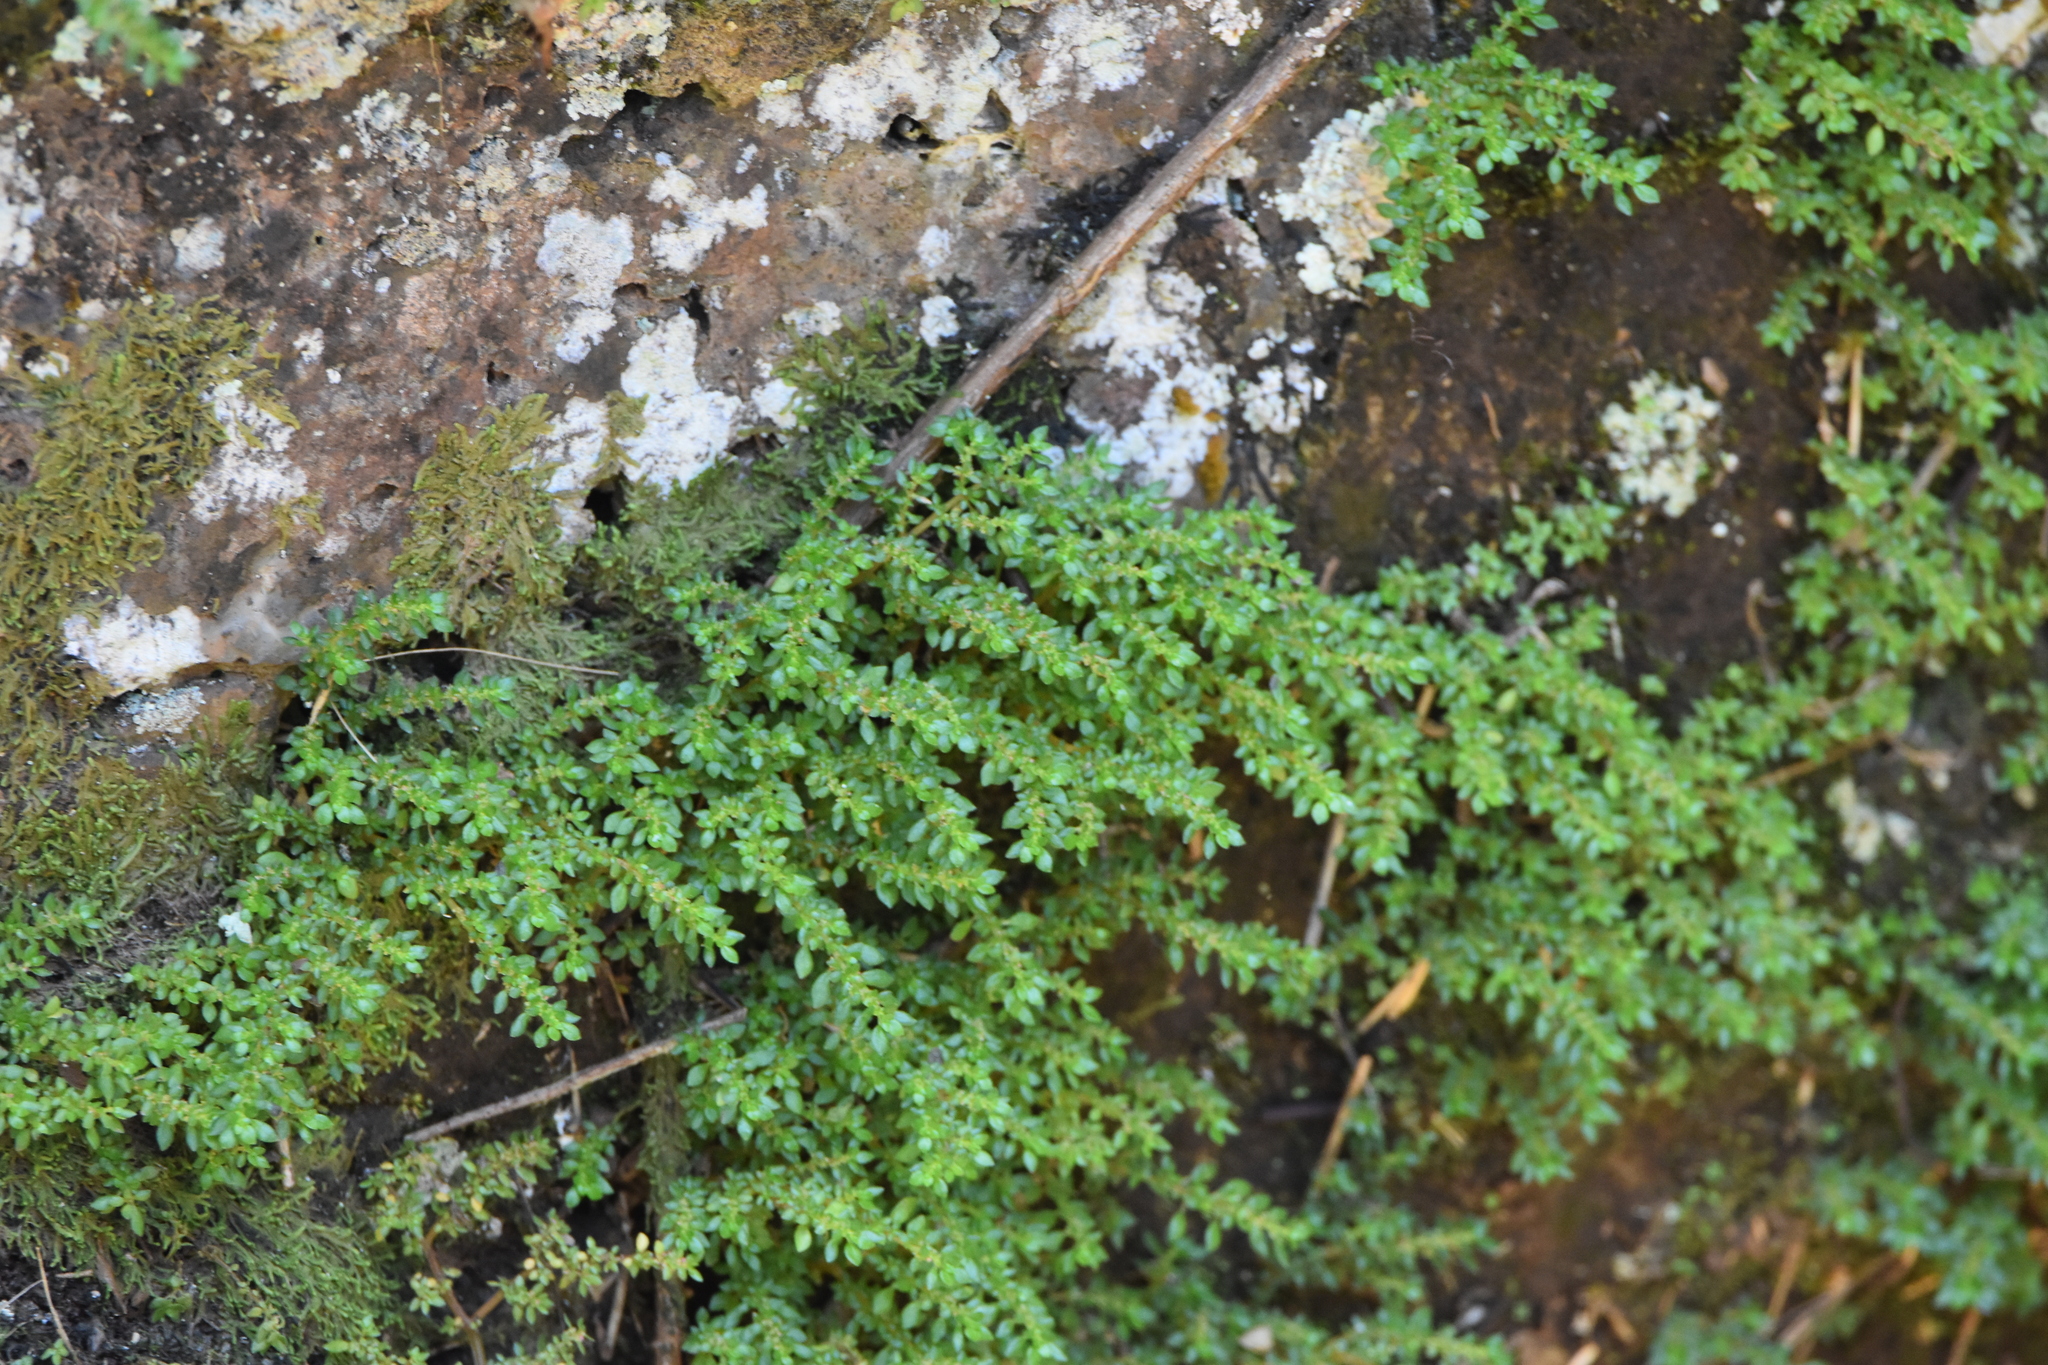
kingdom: Plantae
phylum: Tracheophyta
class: Magnoliopsida
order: Rosales
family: Urticaceae
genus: Pilea
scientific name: Pilea microphylla
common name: Artillery-plant
